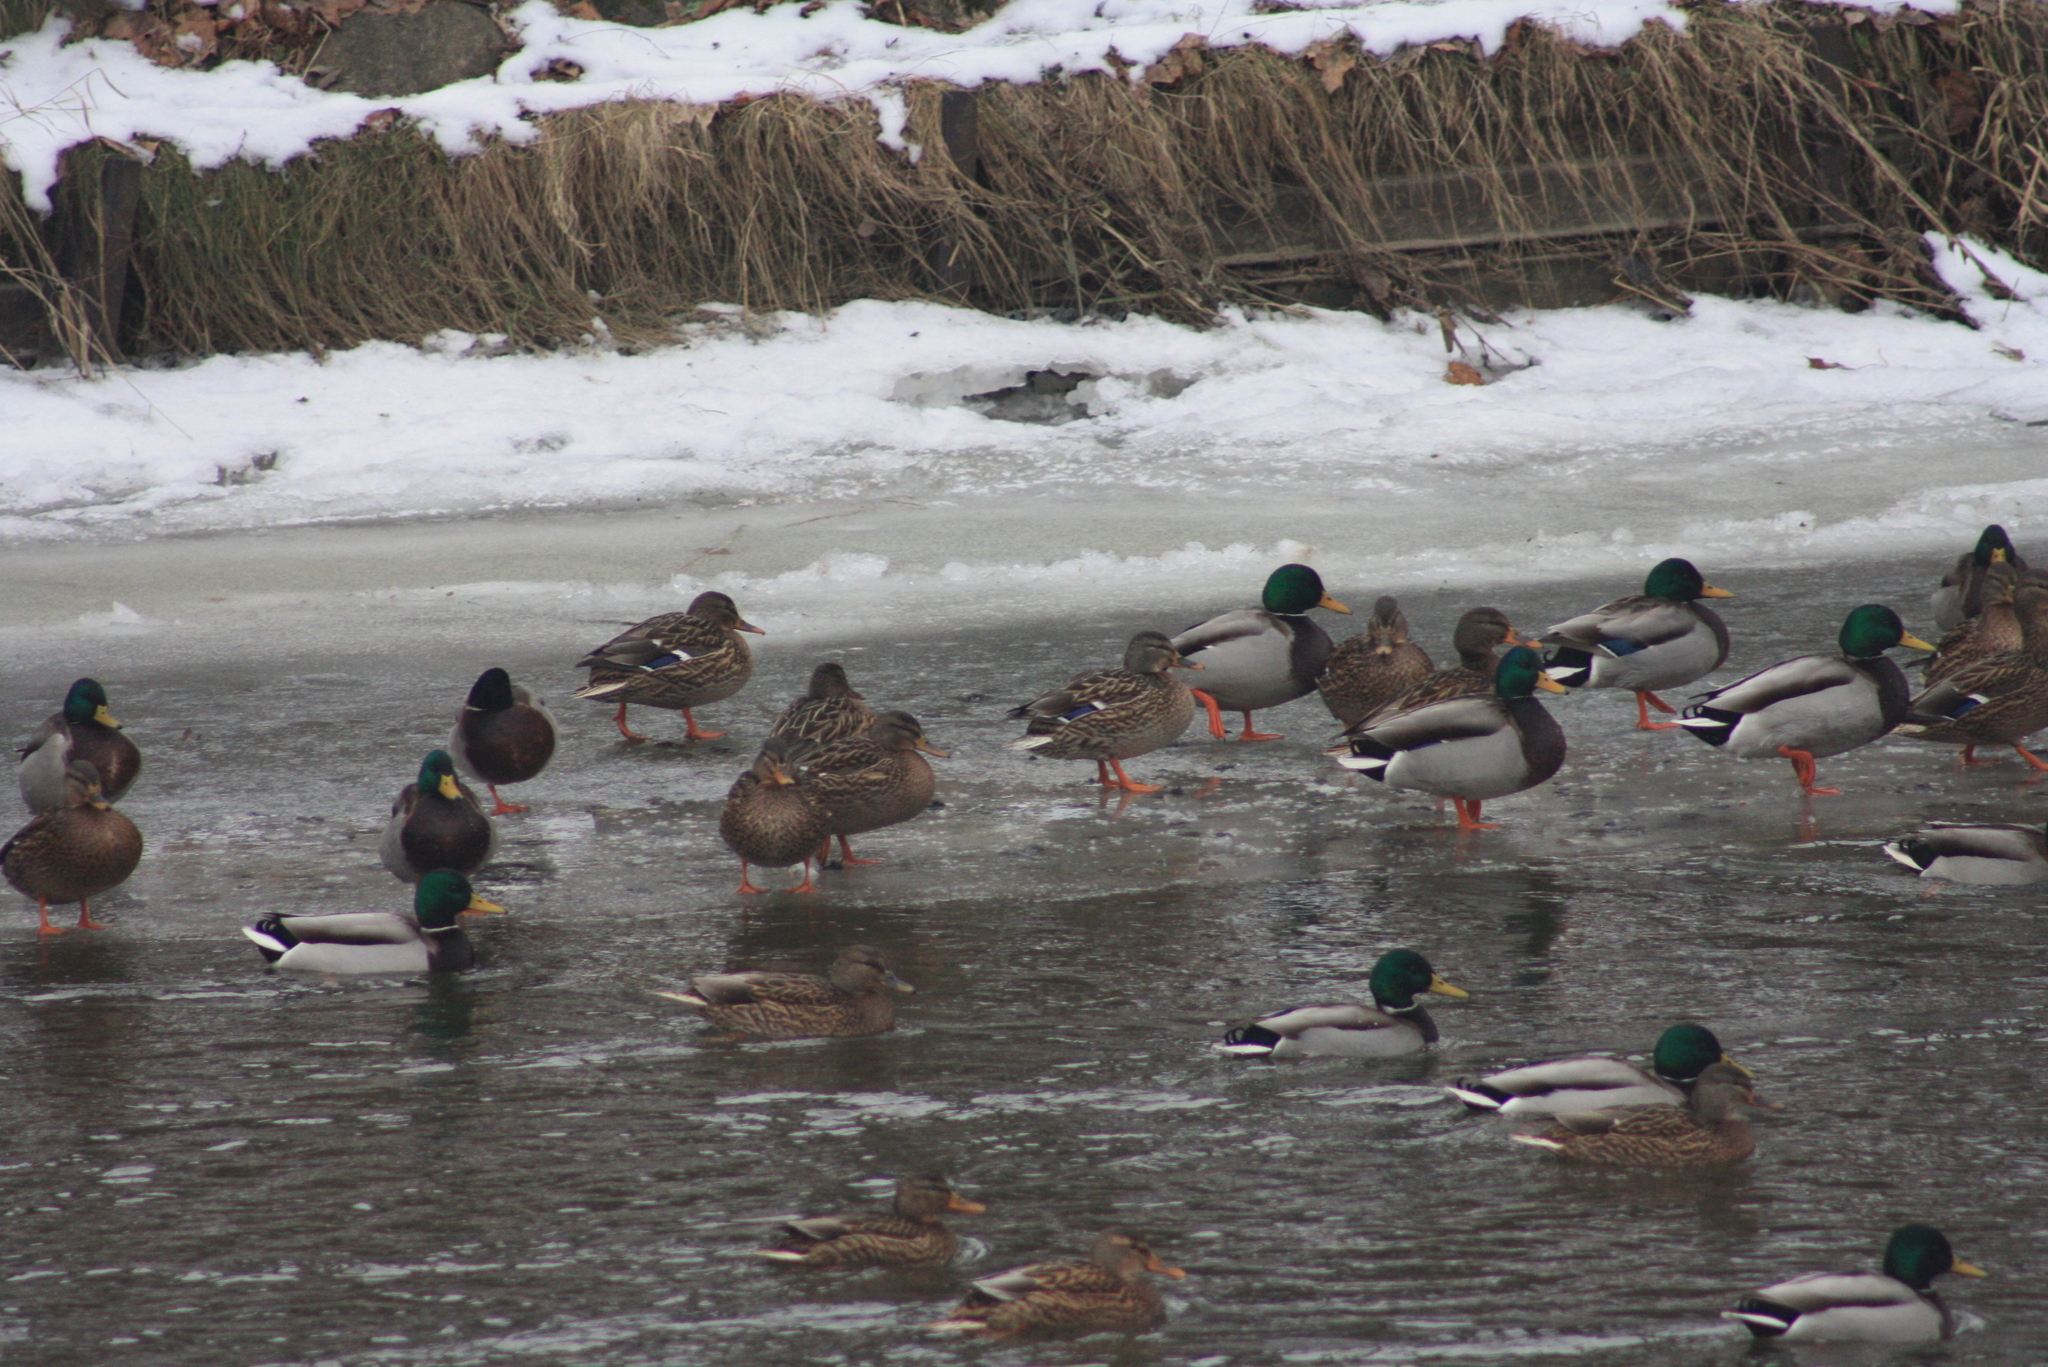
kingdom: Animalia
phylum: Chordata
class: Aves
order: Anseriformes
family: Anatidae
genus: Anas
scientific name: Anas platyrhynchos
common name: Mallard
